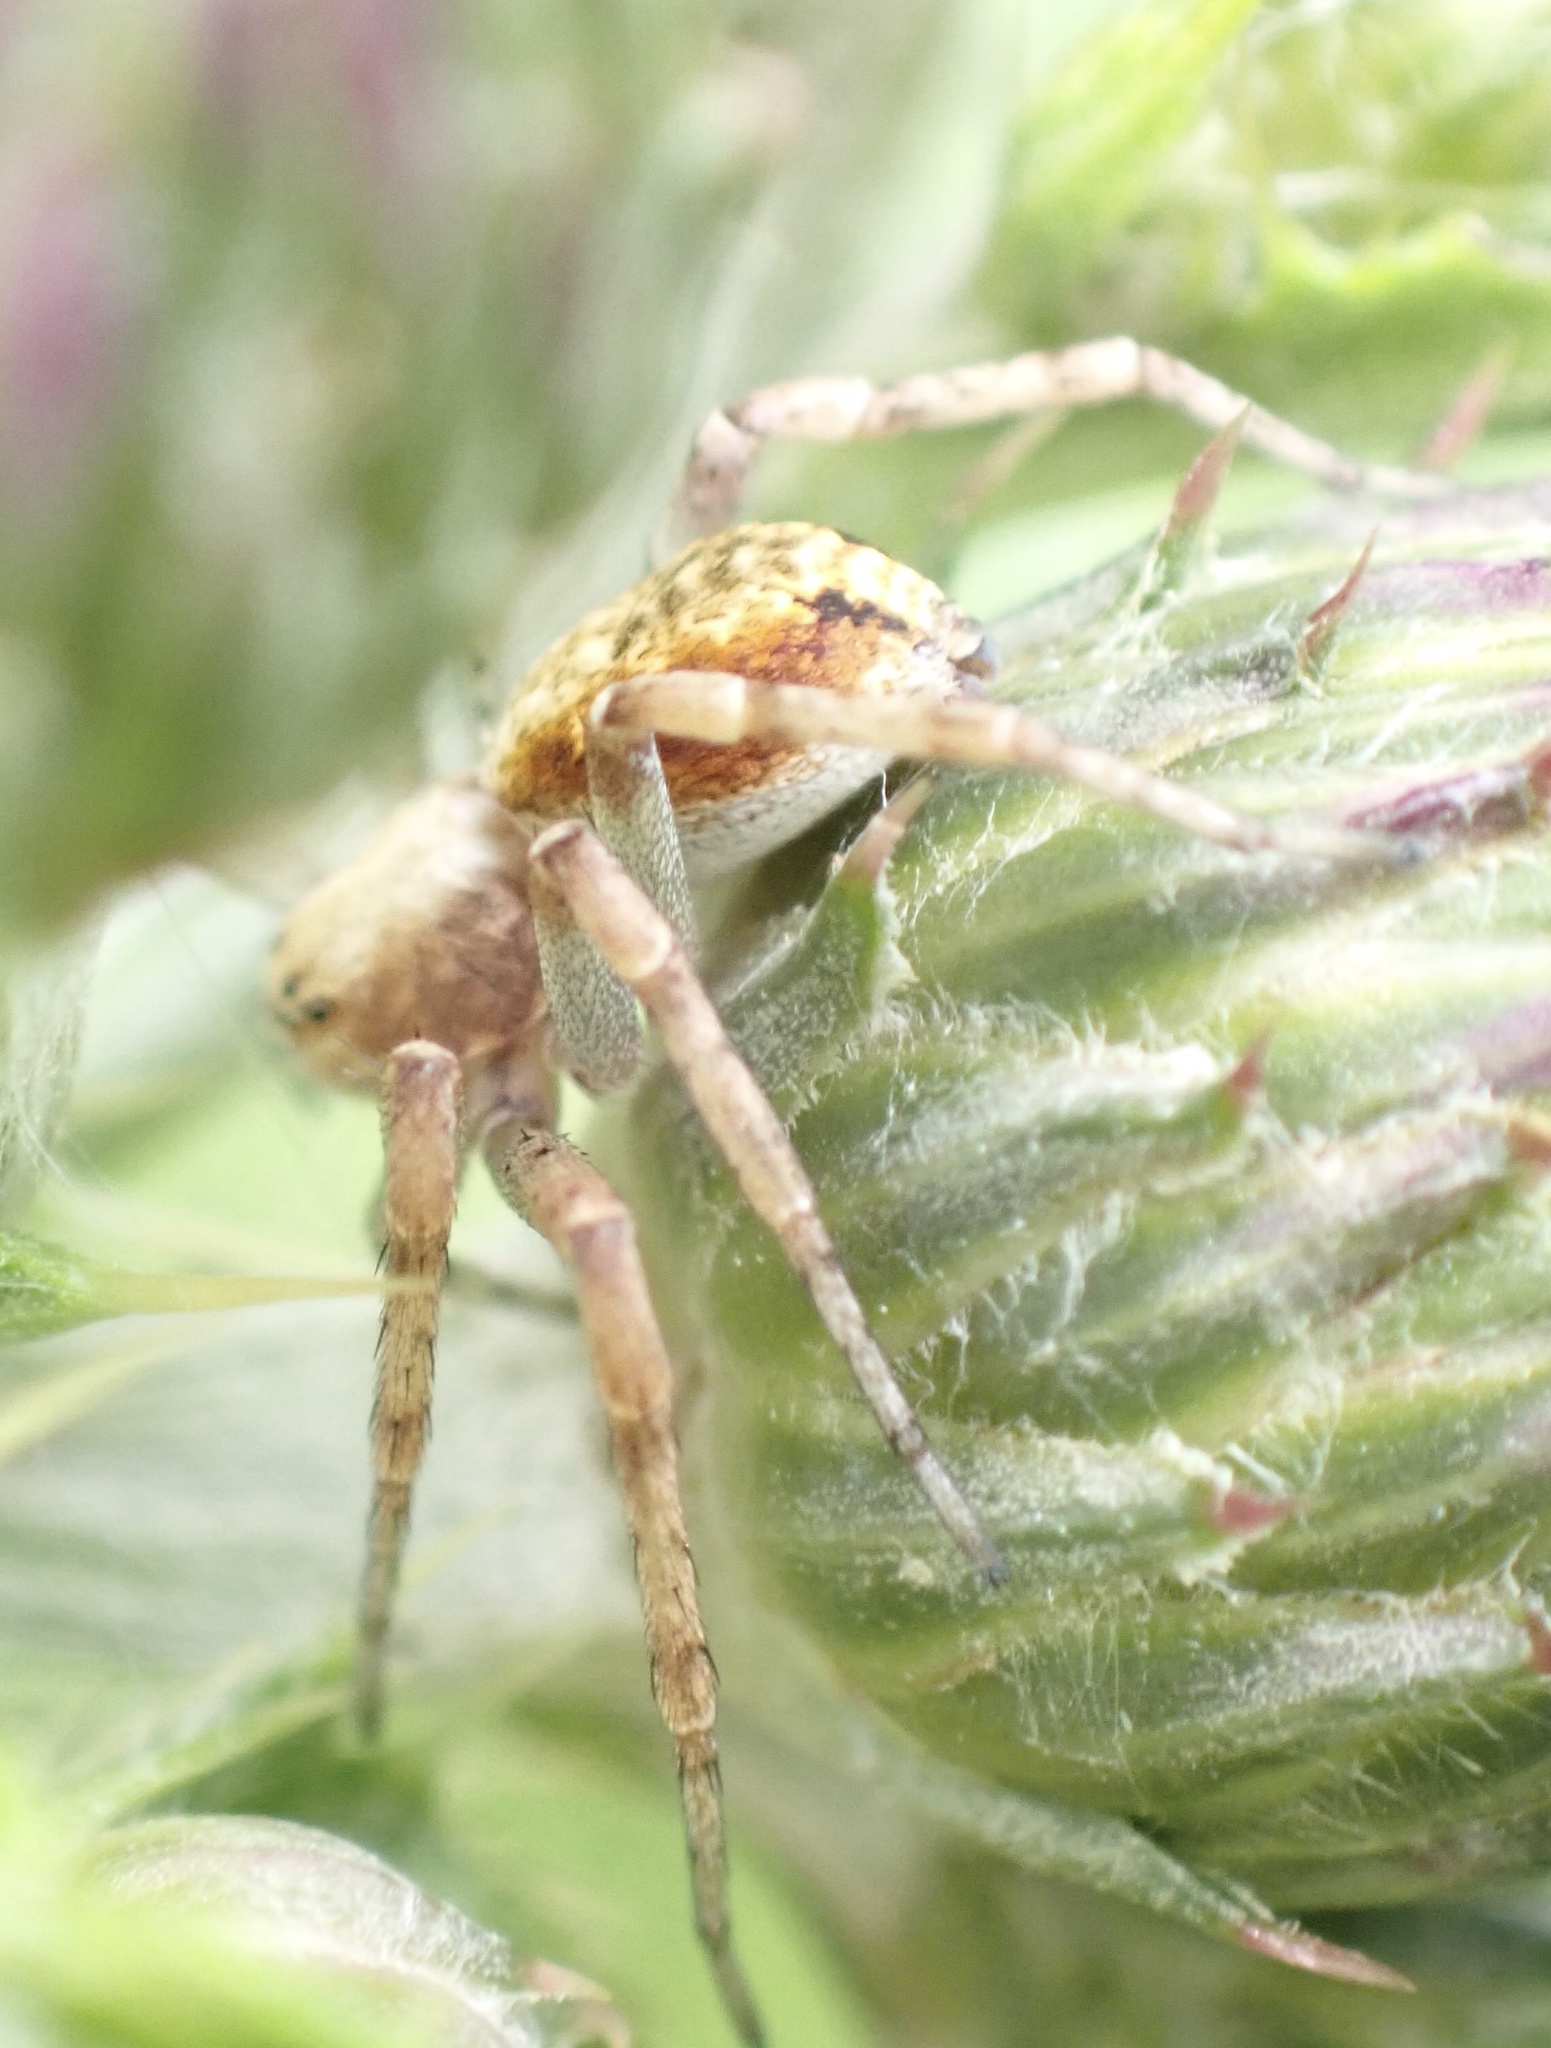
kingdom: Animalia
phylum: Arthropoda
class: Arachnida
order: Araneae
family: Philodromidae
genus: Philodromus
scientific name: Philodromus
